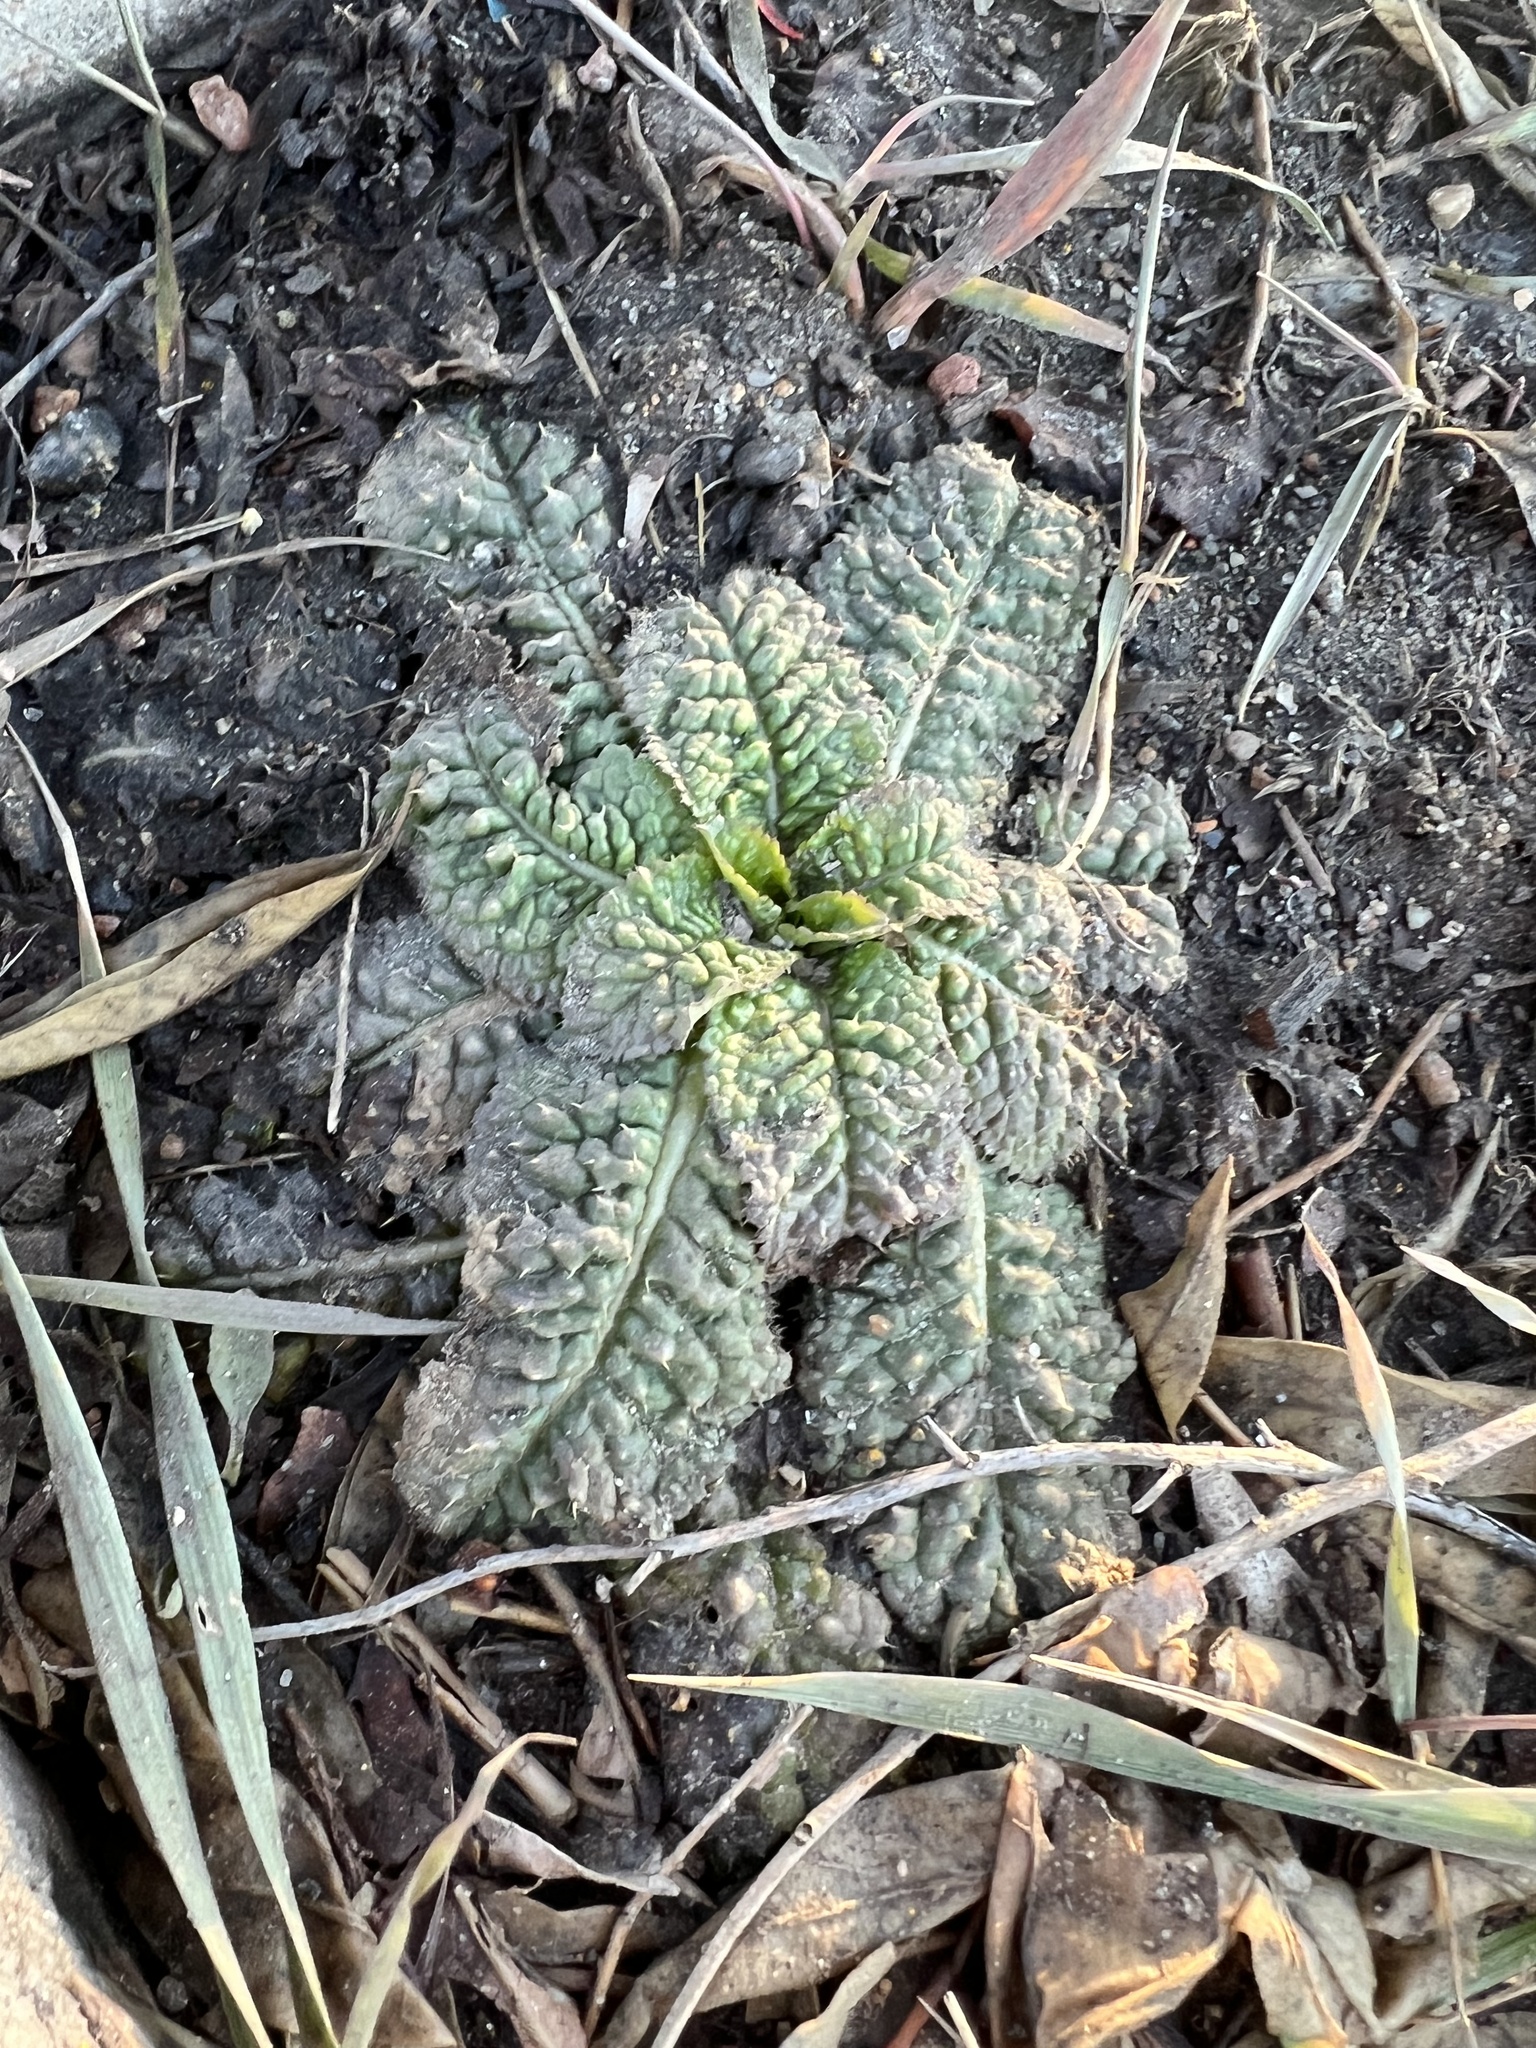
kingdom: Plantae
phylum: Tracheophyta
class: Magnoliopsida
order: Dipsacales
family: Caprifoliaceae
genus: Dipsacus
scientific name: Dipsacus fullonum
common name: Teasel
